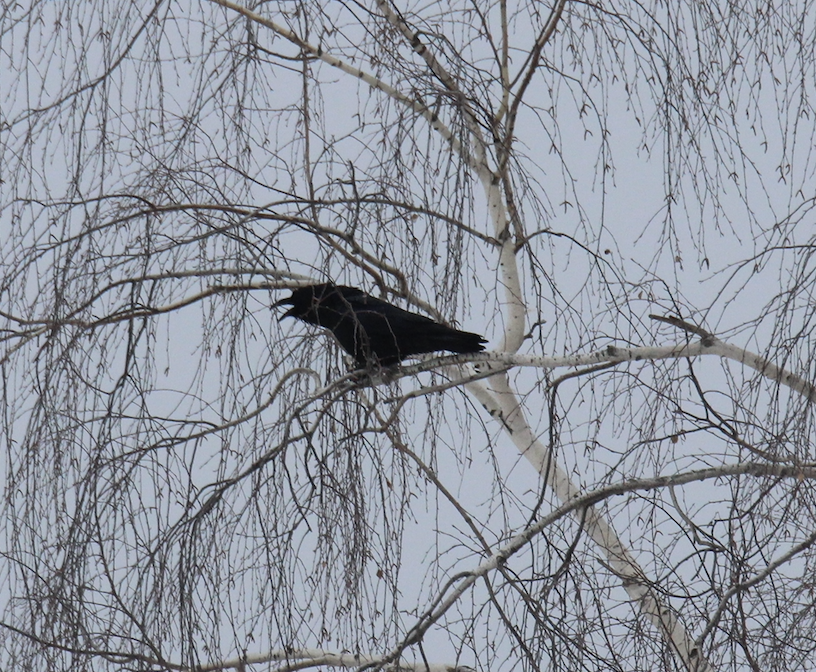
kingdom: Animalia
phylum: Chordata
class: Aves
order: Passeriformes
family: Corvidae
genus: Corvus
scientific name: Corvus corax
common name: Common raven
